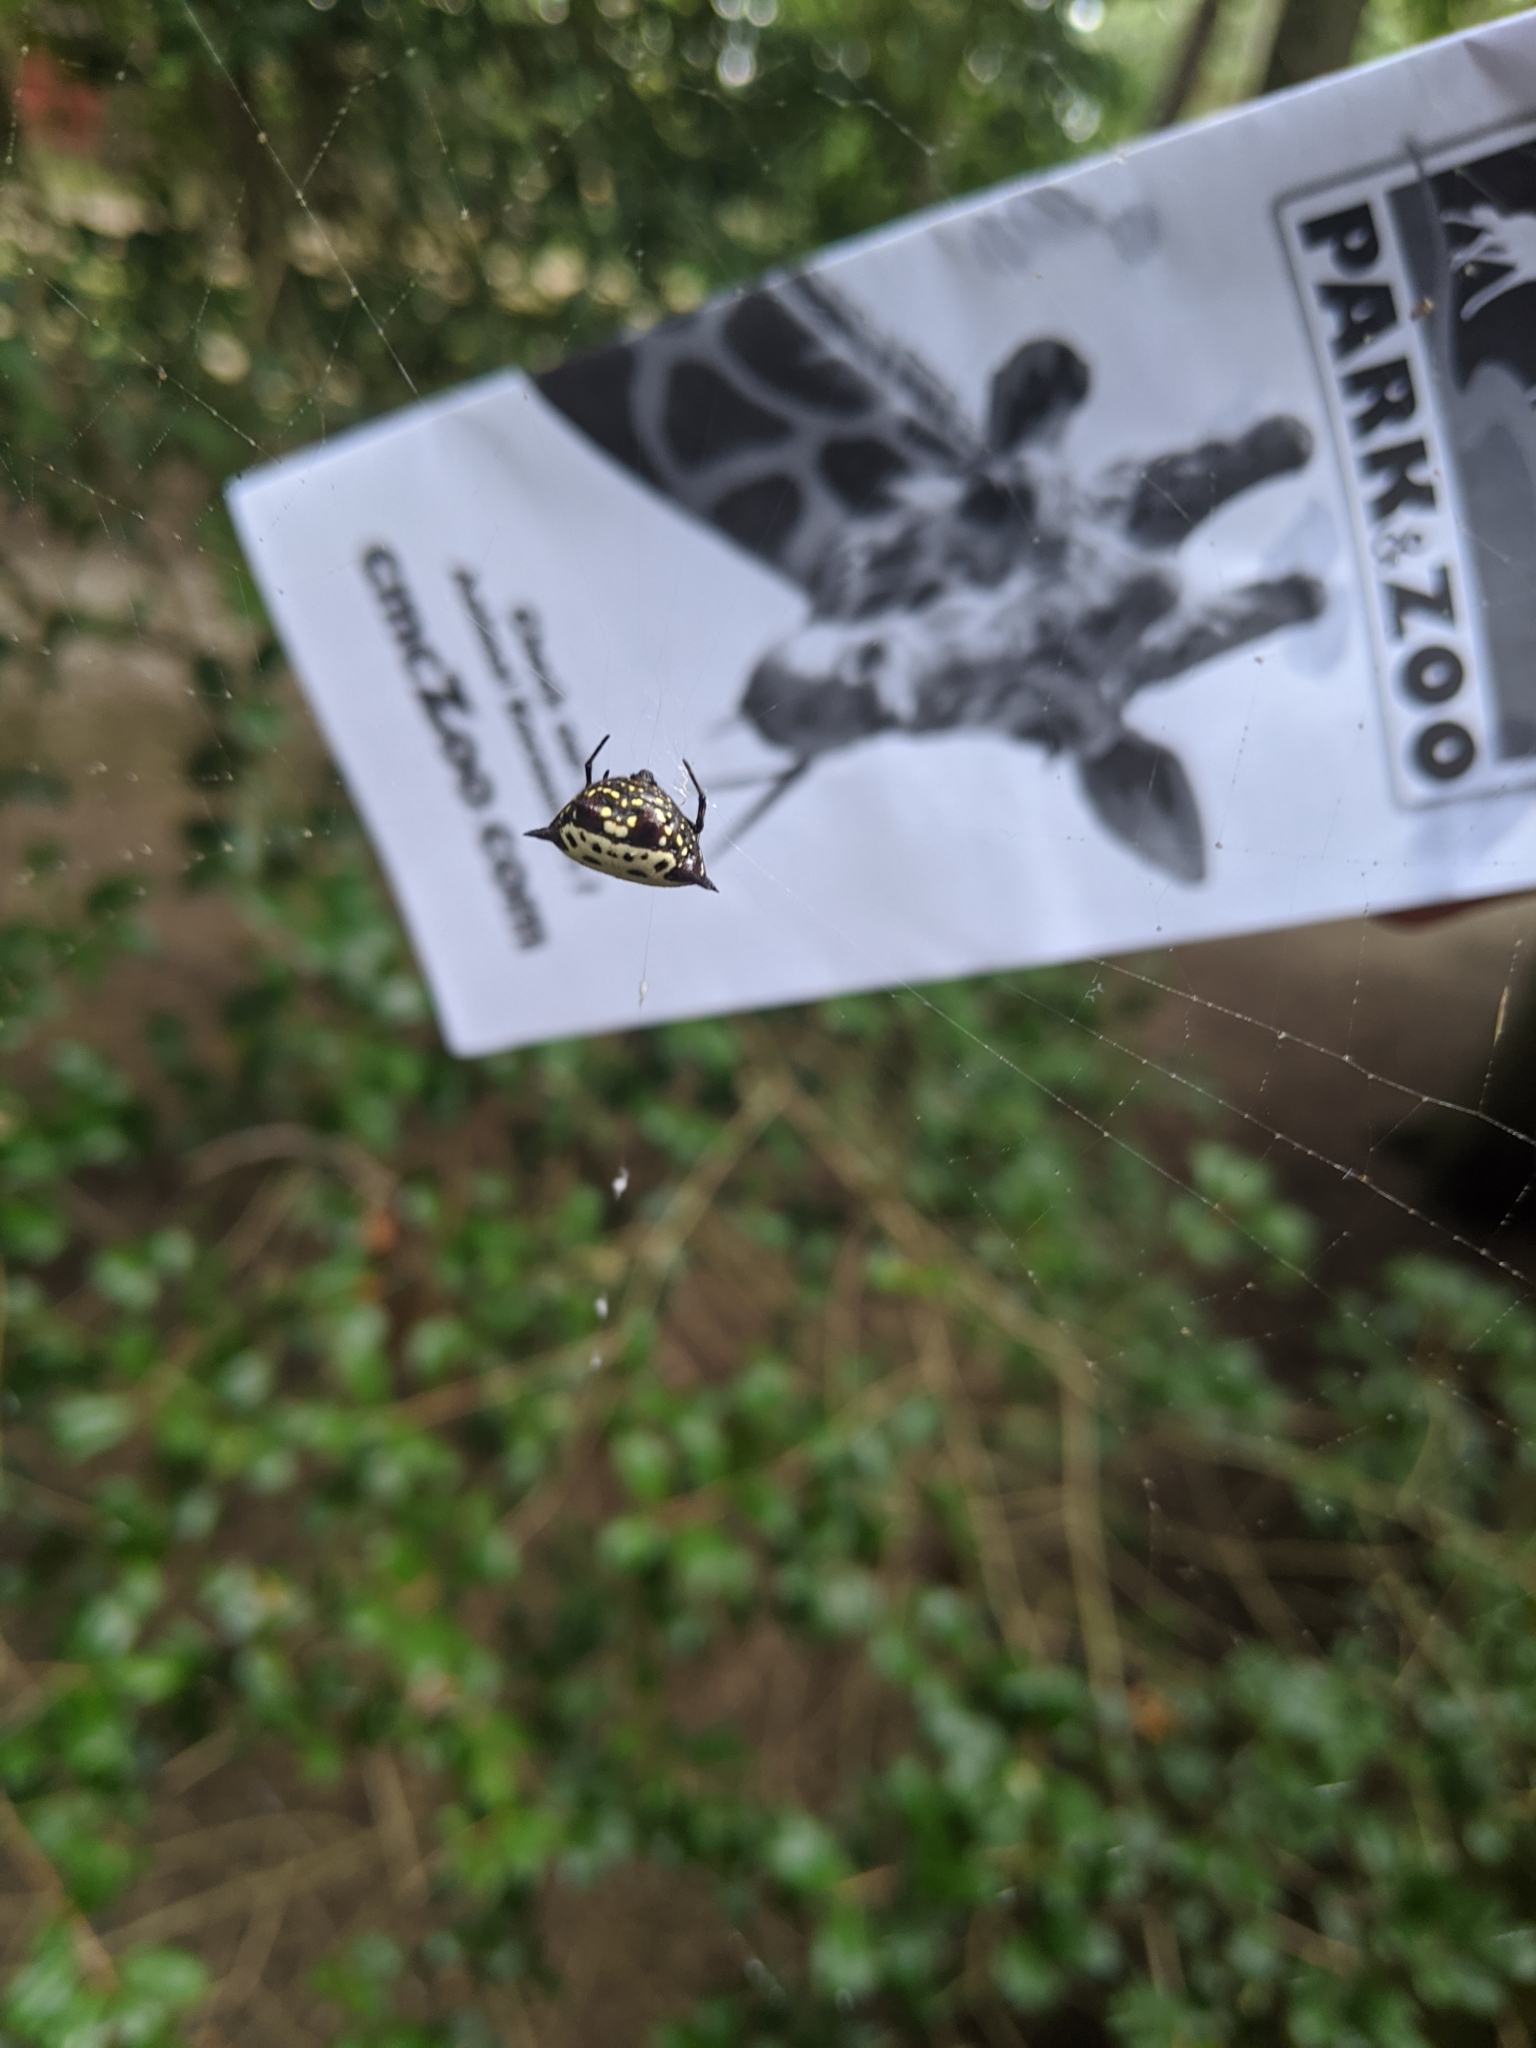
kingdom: Animalia
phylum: Arthropoda
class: Arachnida
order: Araneae
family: Araneidae
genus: Gasteracantha
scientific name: Gasteracantha cancriformis
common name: Orb weavers
